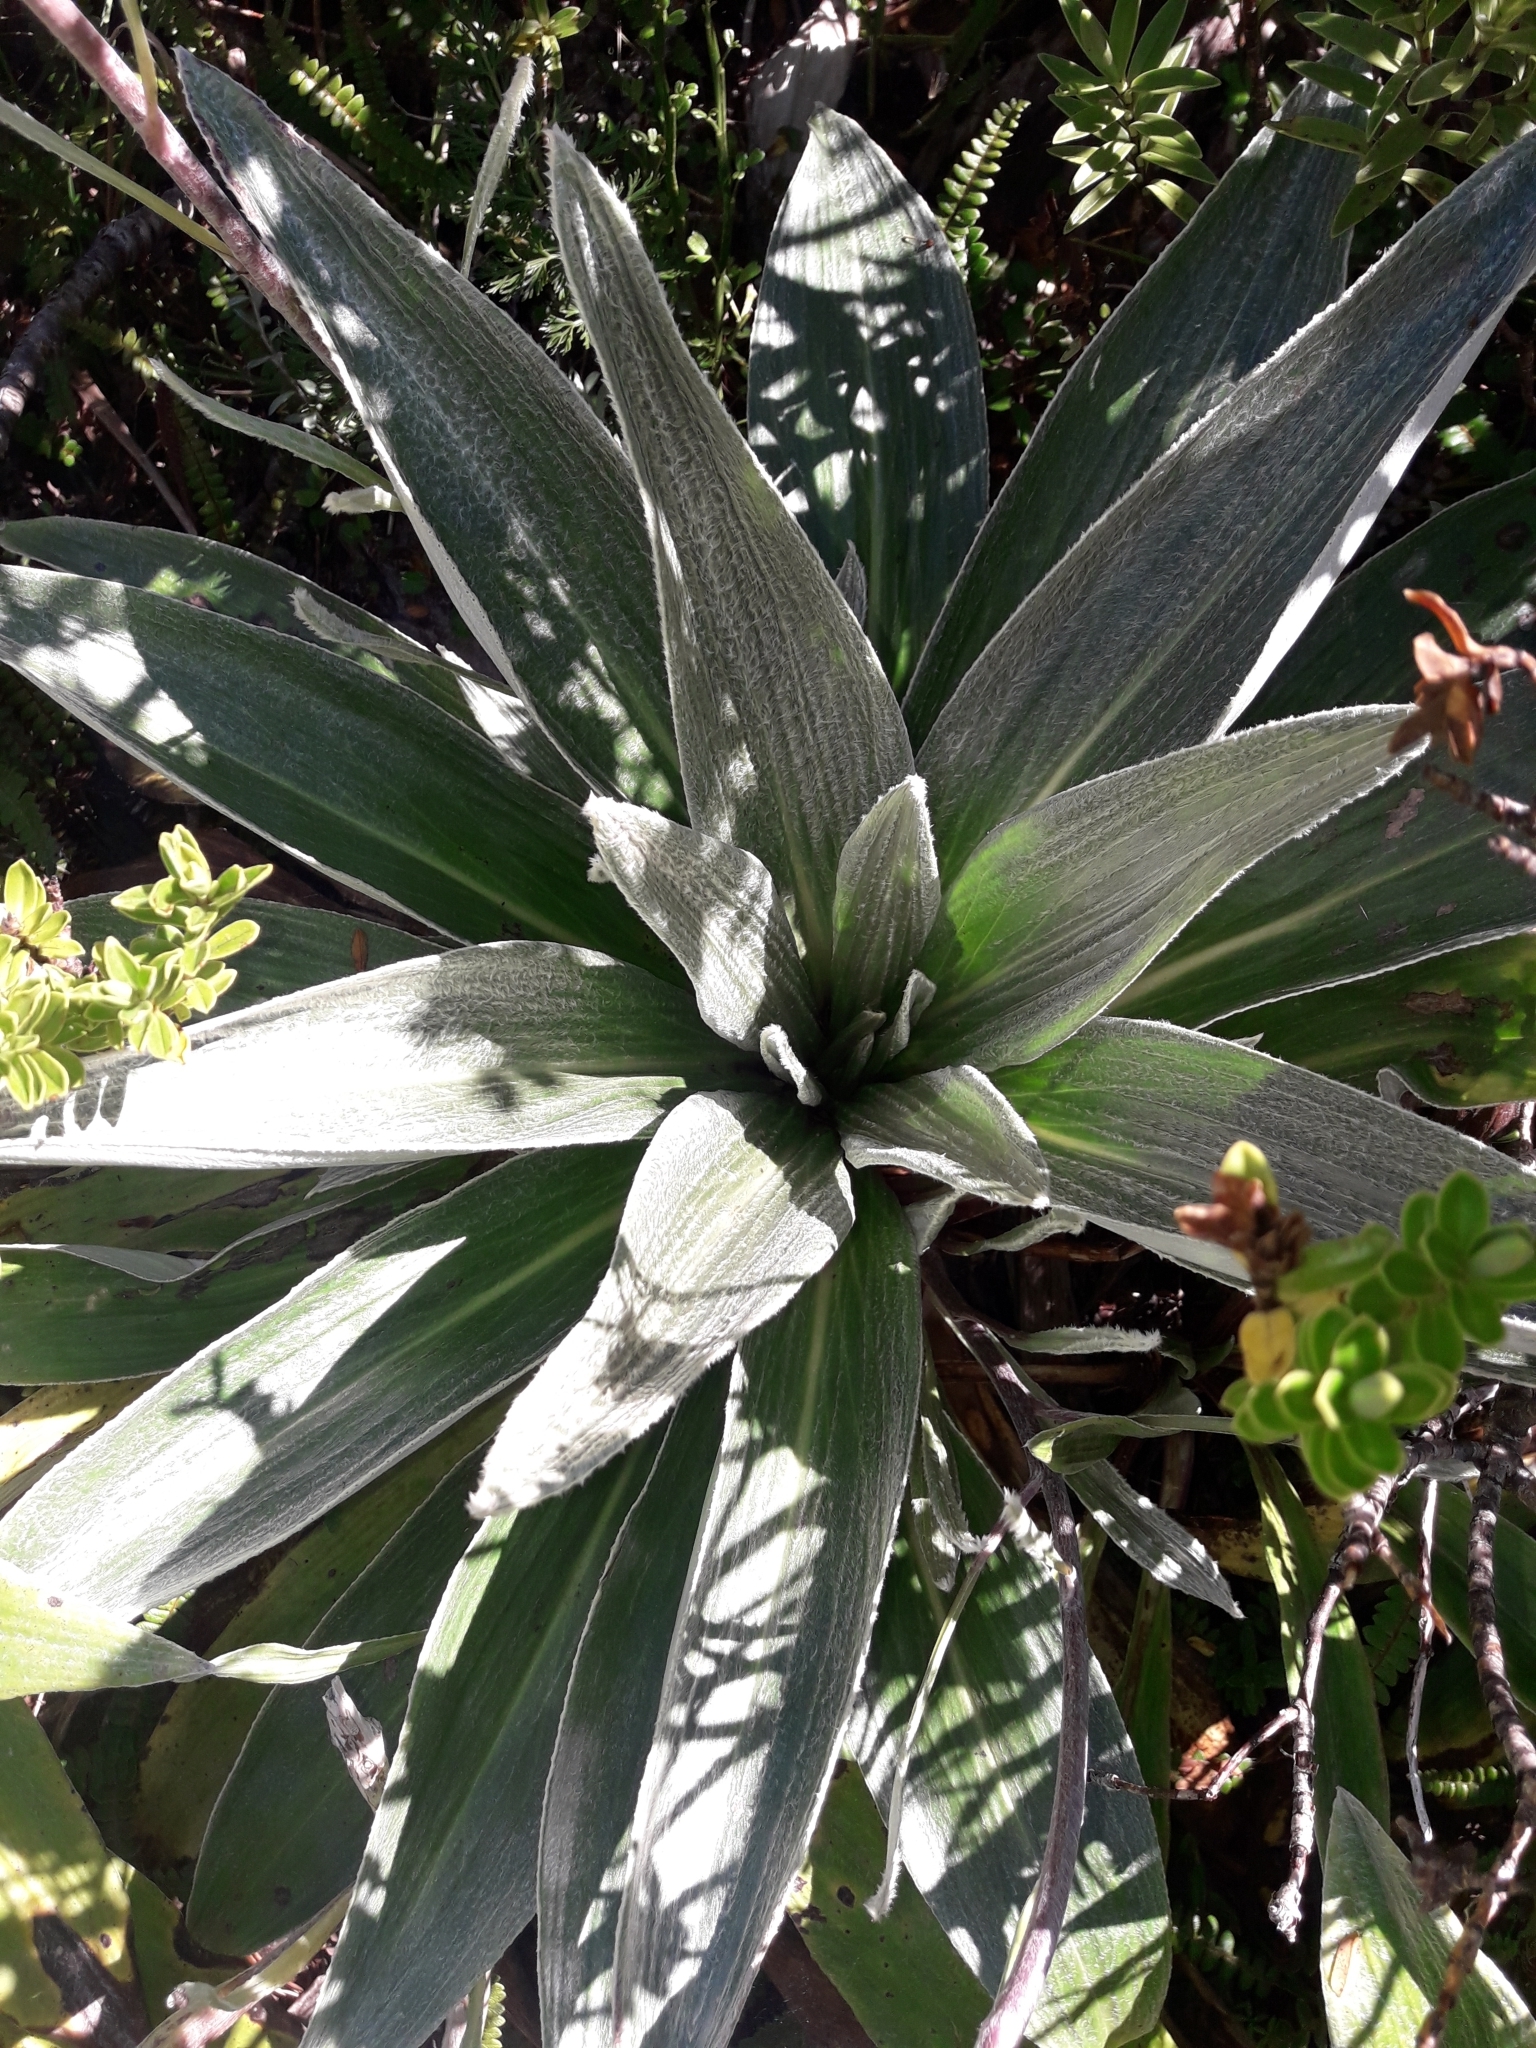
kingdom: Plantae
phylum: Tracheophyta
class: Magnoliopsida
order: Asterales
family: Asteraceae
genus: Celmisia
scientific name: Celmisia semicordata
